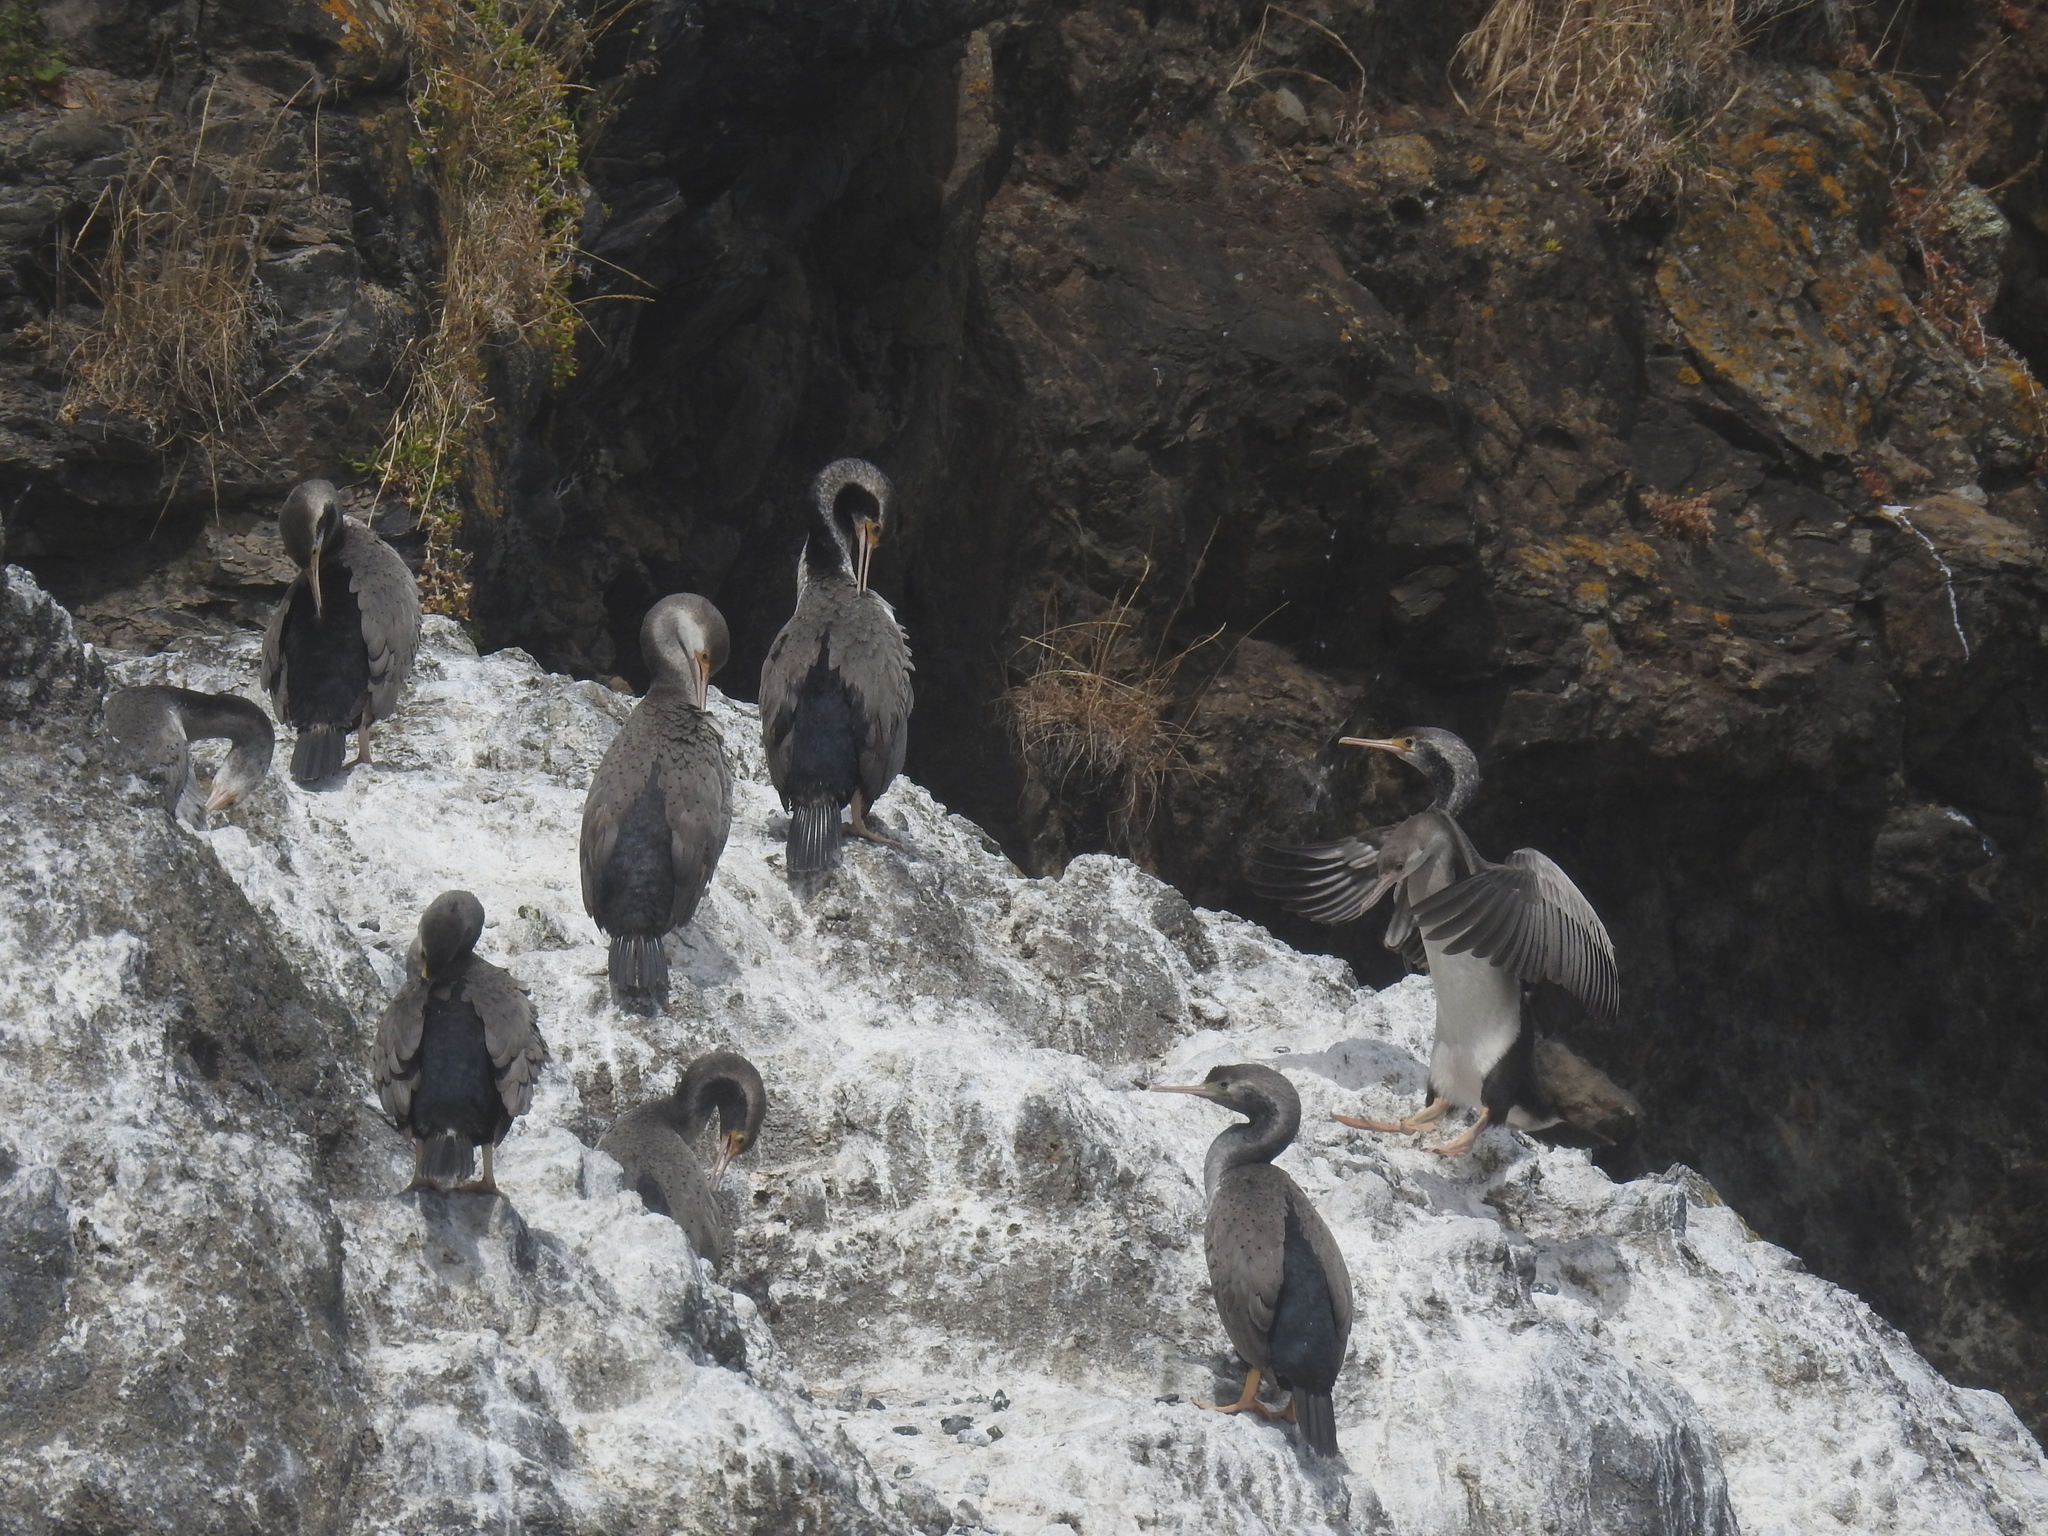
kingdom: Animalia
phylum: Chordata
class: Aves
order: Suliformes
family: Phalacrocoracidae
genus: Phalacrocorax
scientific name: Phalacrocorax punctatus
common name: Spotted shag
